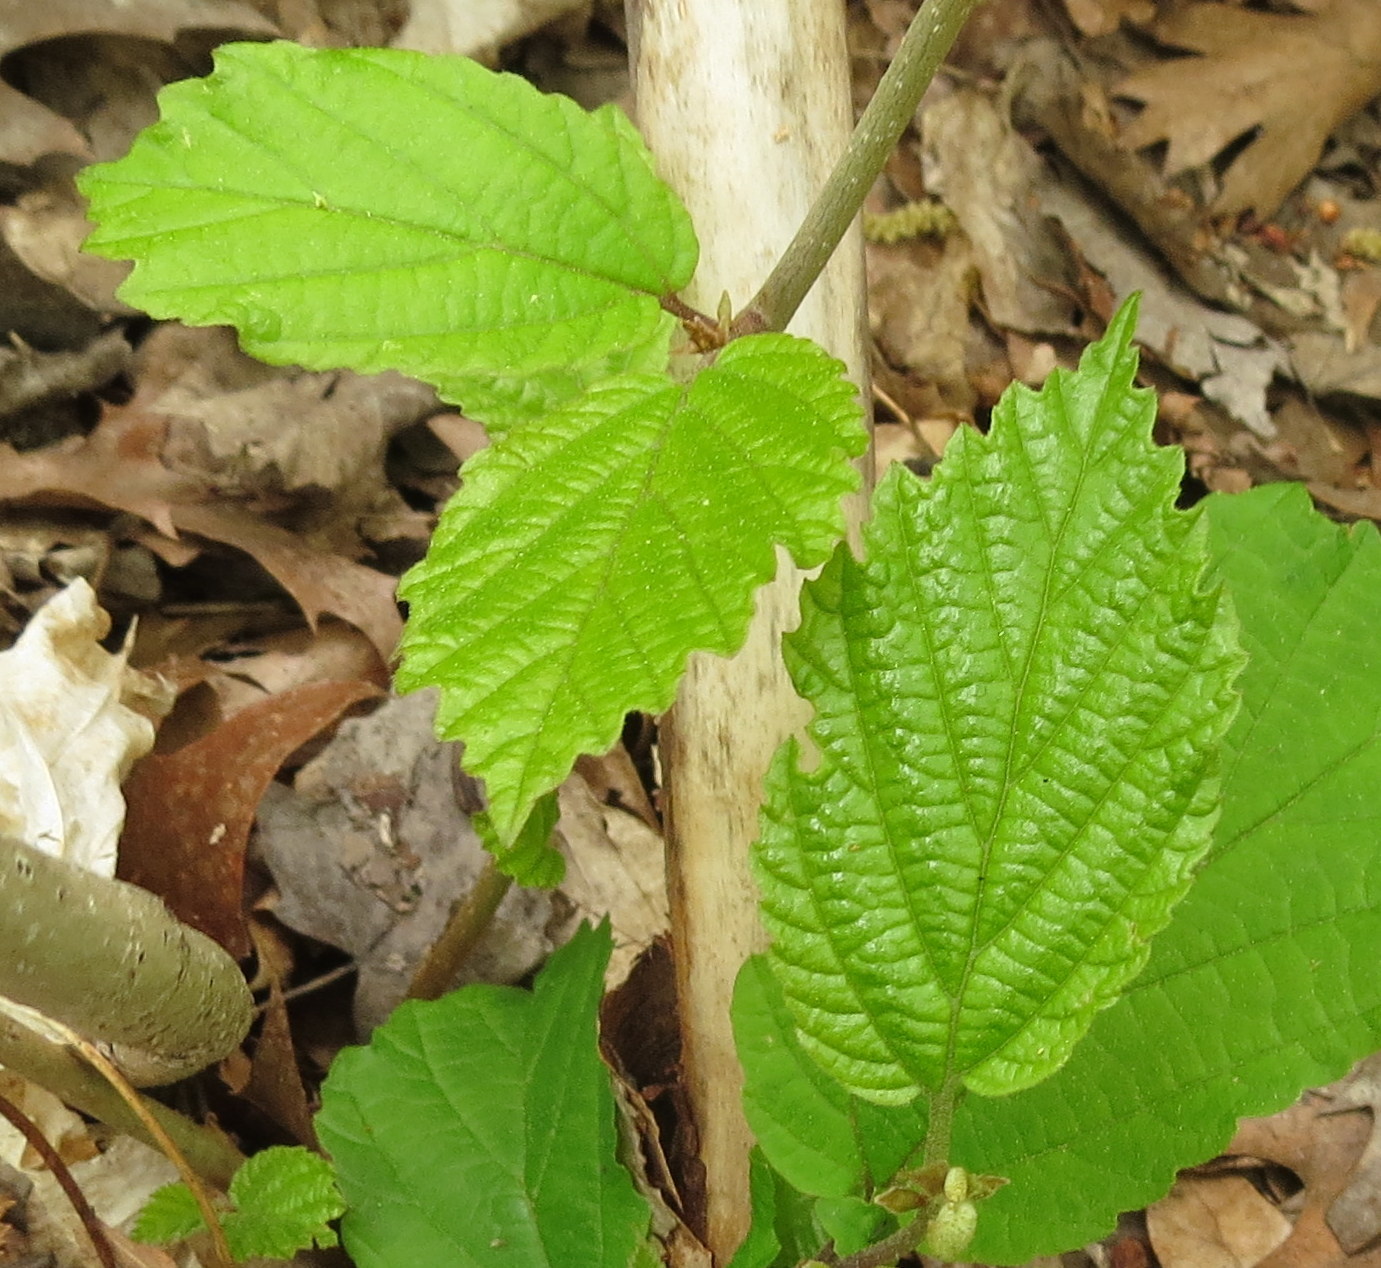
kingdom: Plantae
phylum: Tracheophyta
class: Magnoliopsida
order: Saxifragales
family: Hamamelidaceae
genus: Hamamelis
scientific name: Hamamelis virginiana
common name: Witch-hazel
